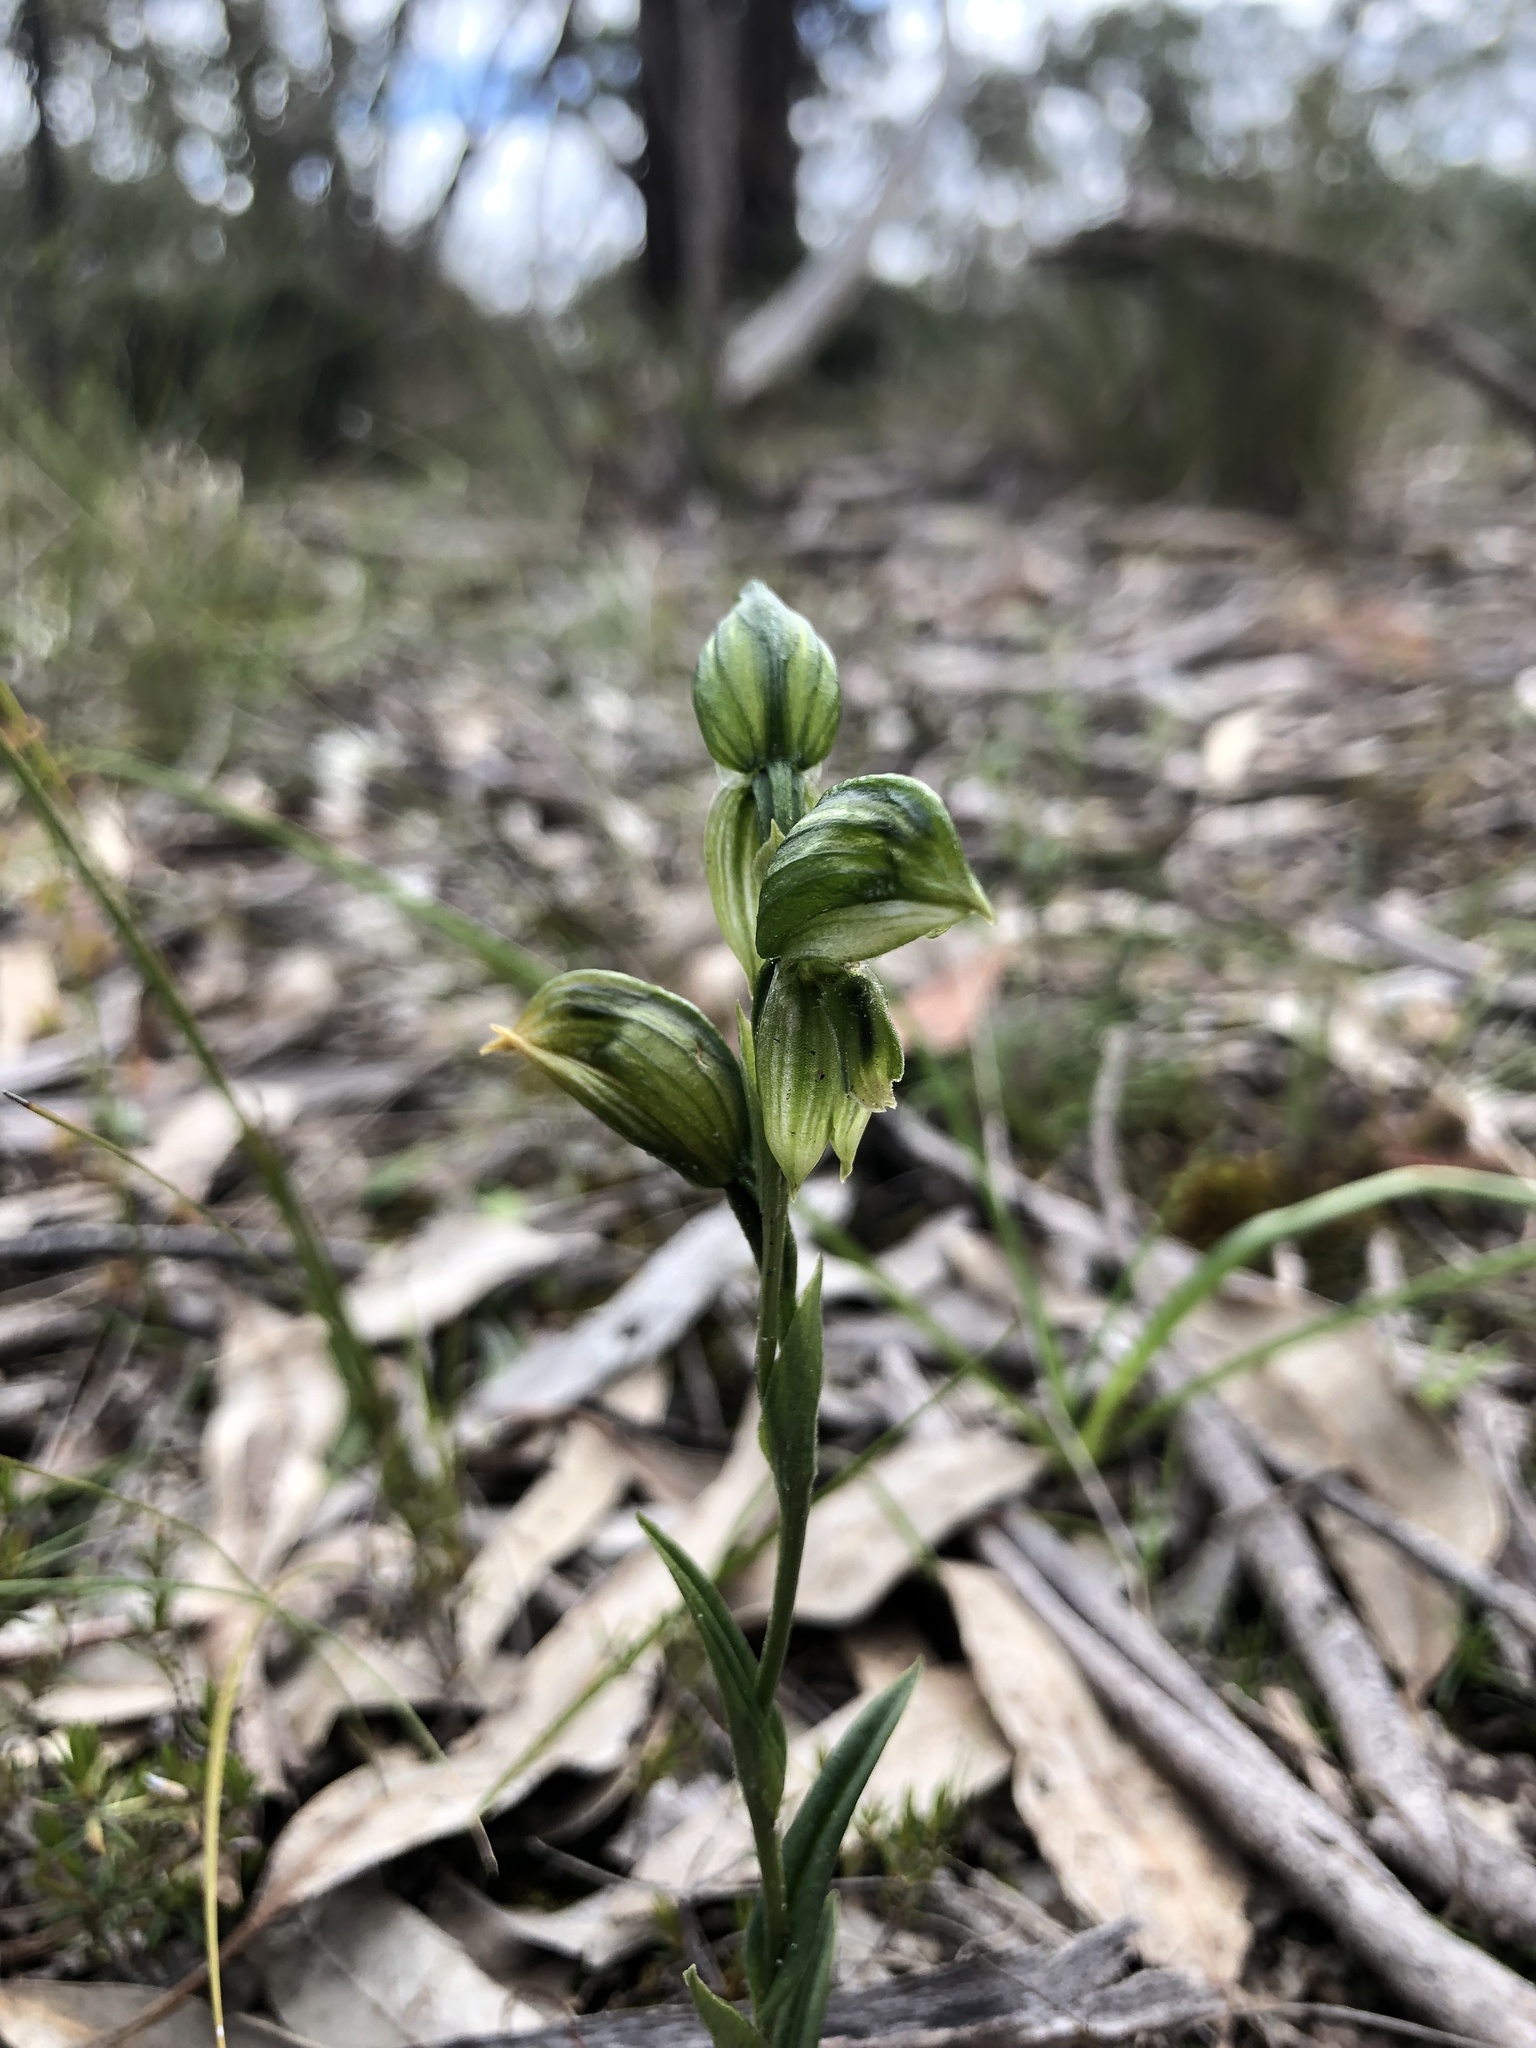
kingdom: Plantae
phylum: Tracheophyta
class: Liliopsida
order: Asparagales
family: Orchidaceae
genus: Pterostylis
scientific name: Pterostylis viriosa
